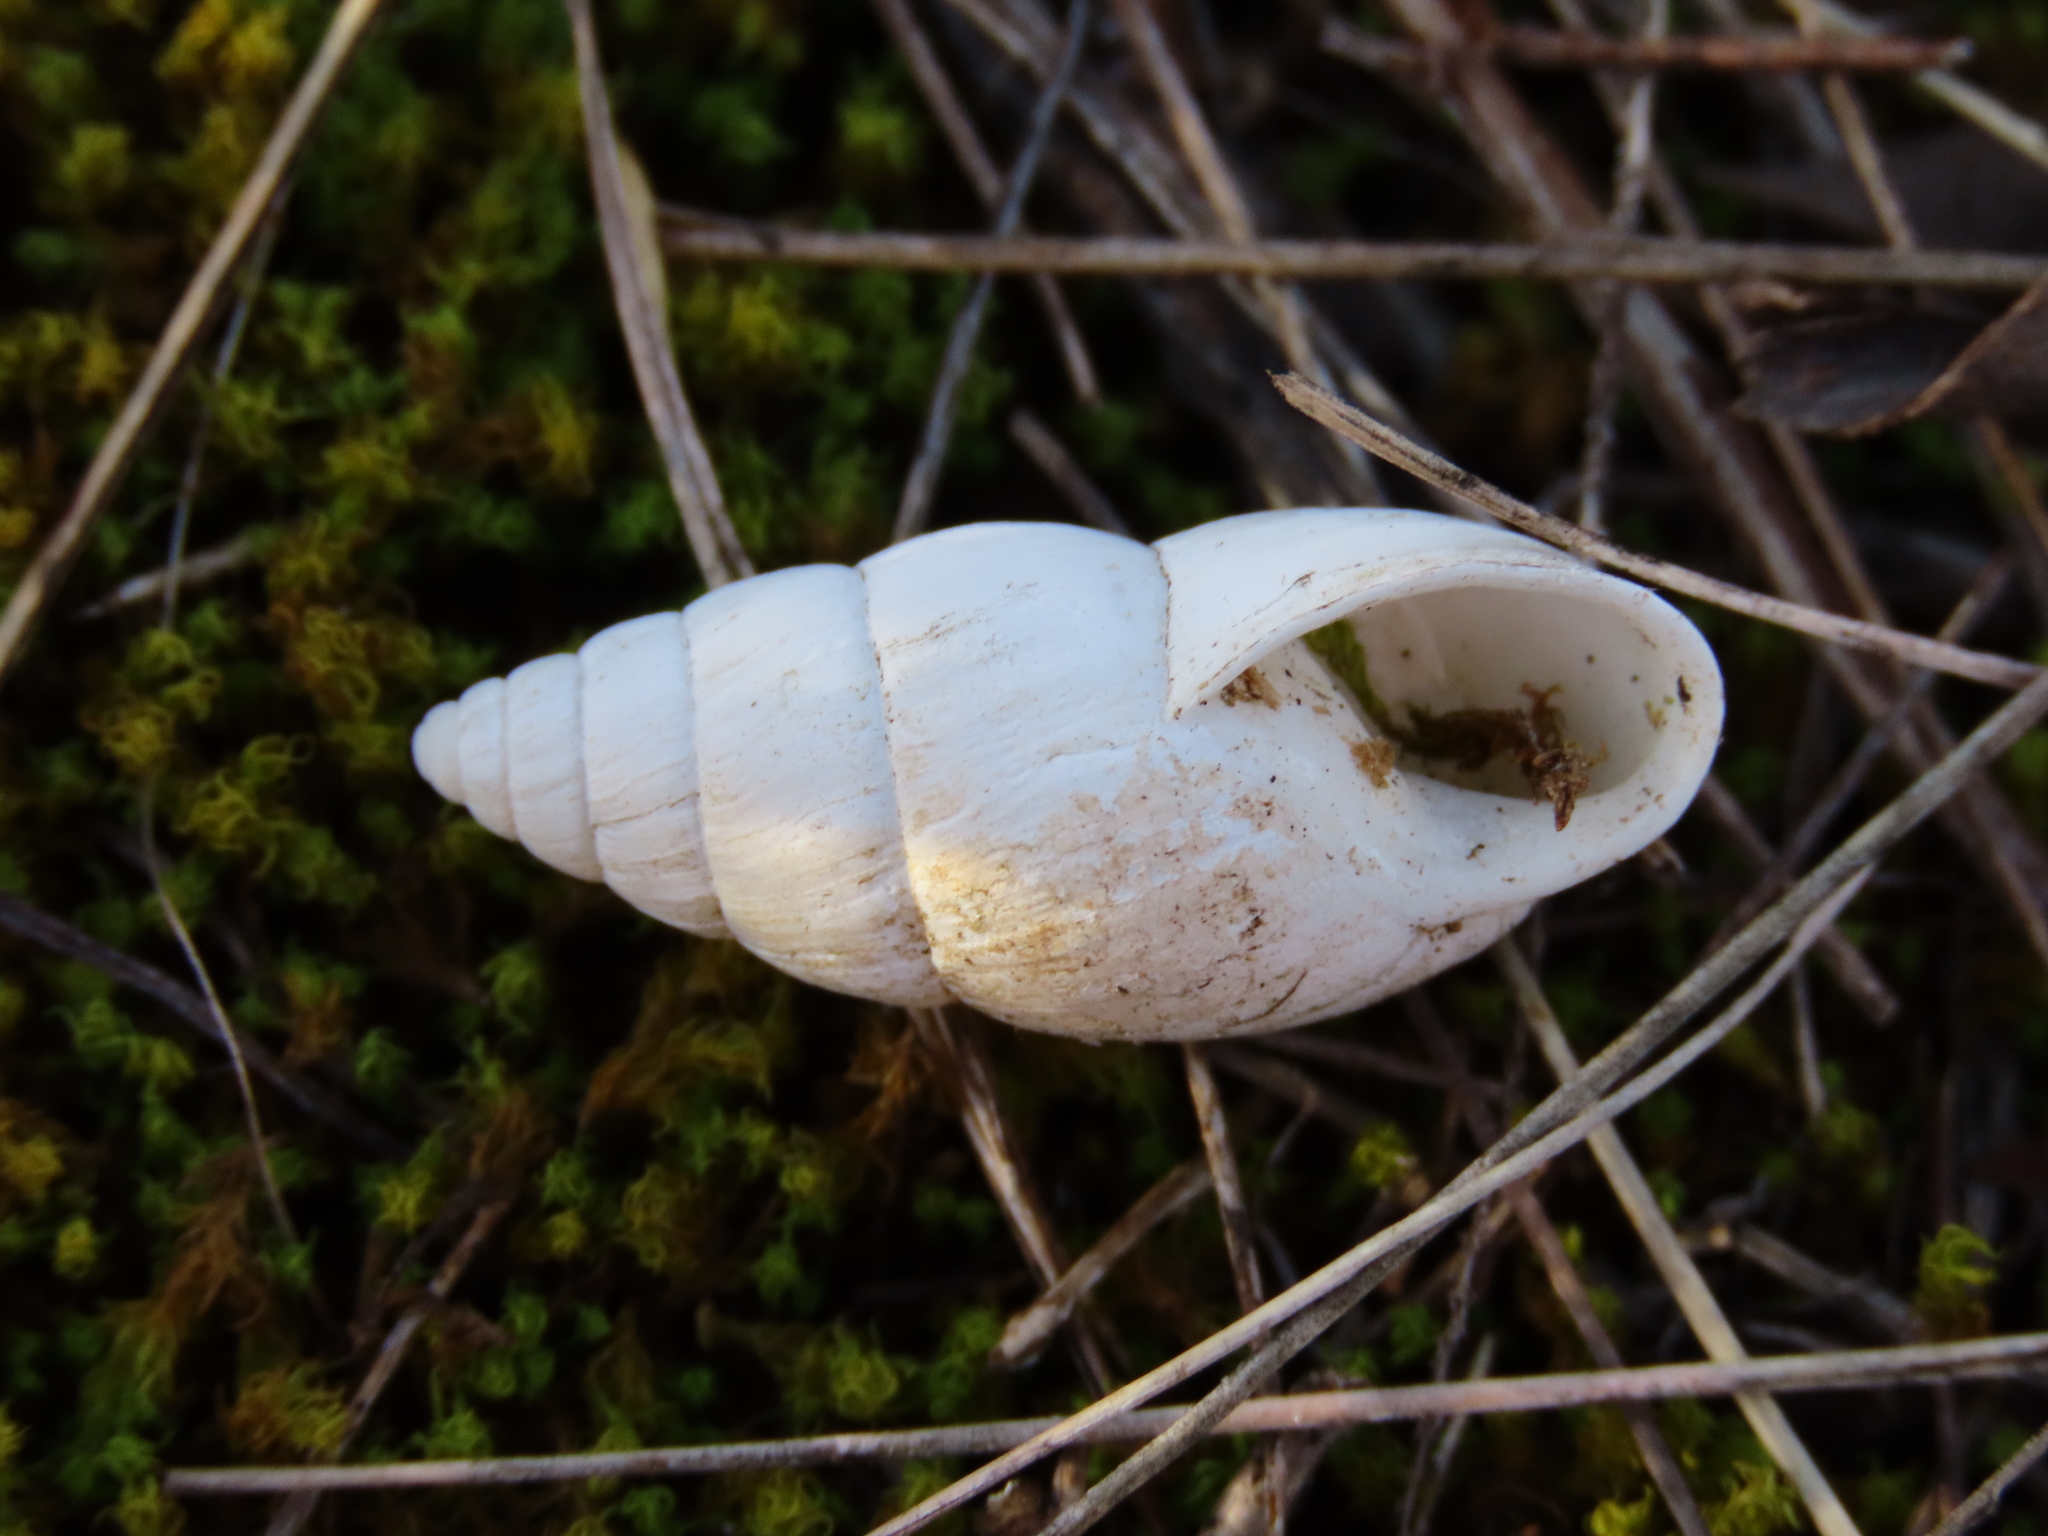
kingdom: Animalia
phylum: Mollusca
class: Gastropoda
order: Stylommatophora
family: Enidae
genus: Zebrina
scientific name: Zebrina detrita
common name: Large bulin
